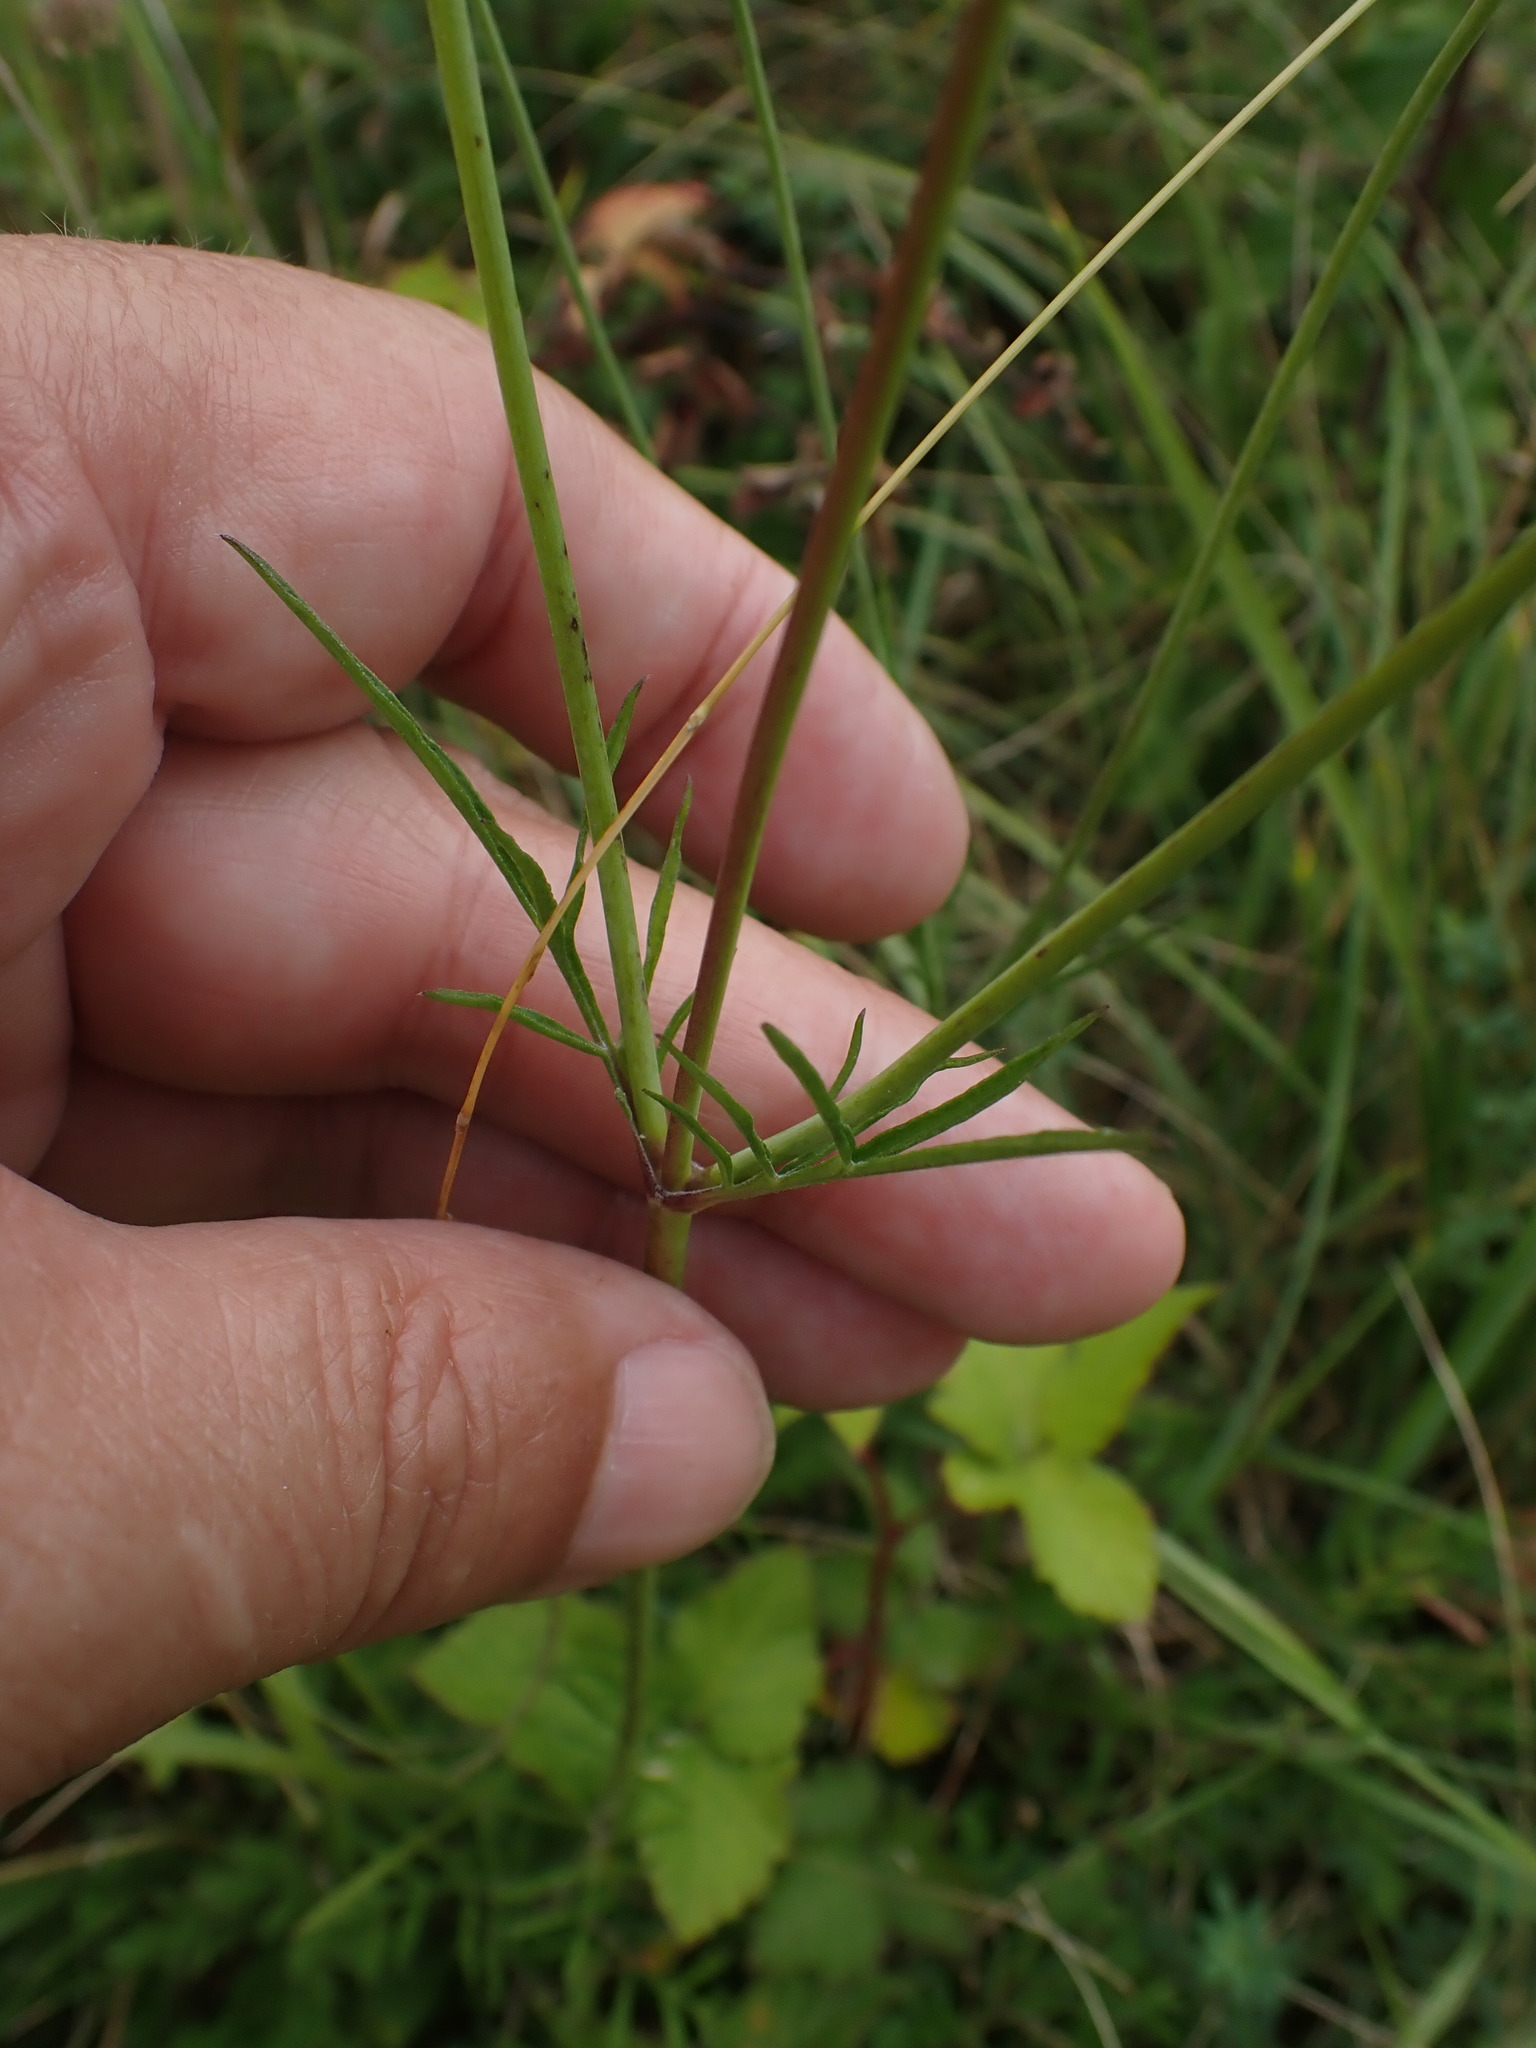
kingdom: Plantae
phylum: Tracheophyta
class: Magnoliopsida
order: Dipsacales
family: Caprifoliaceae
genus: Scabiosa
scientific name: Scabiosa columbaria
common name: Small scabious
